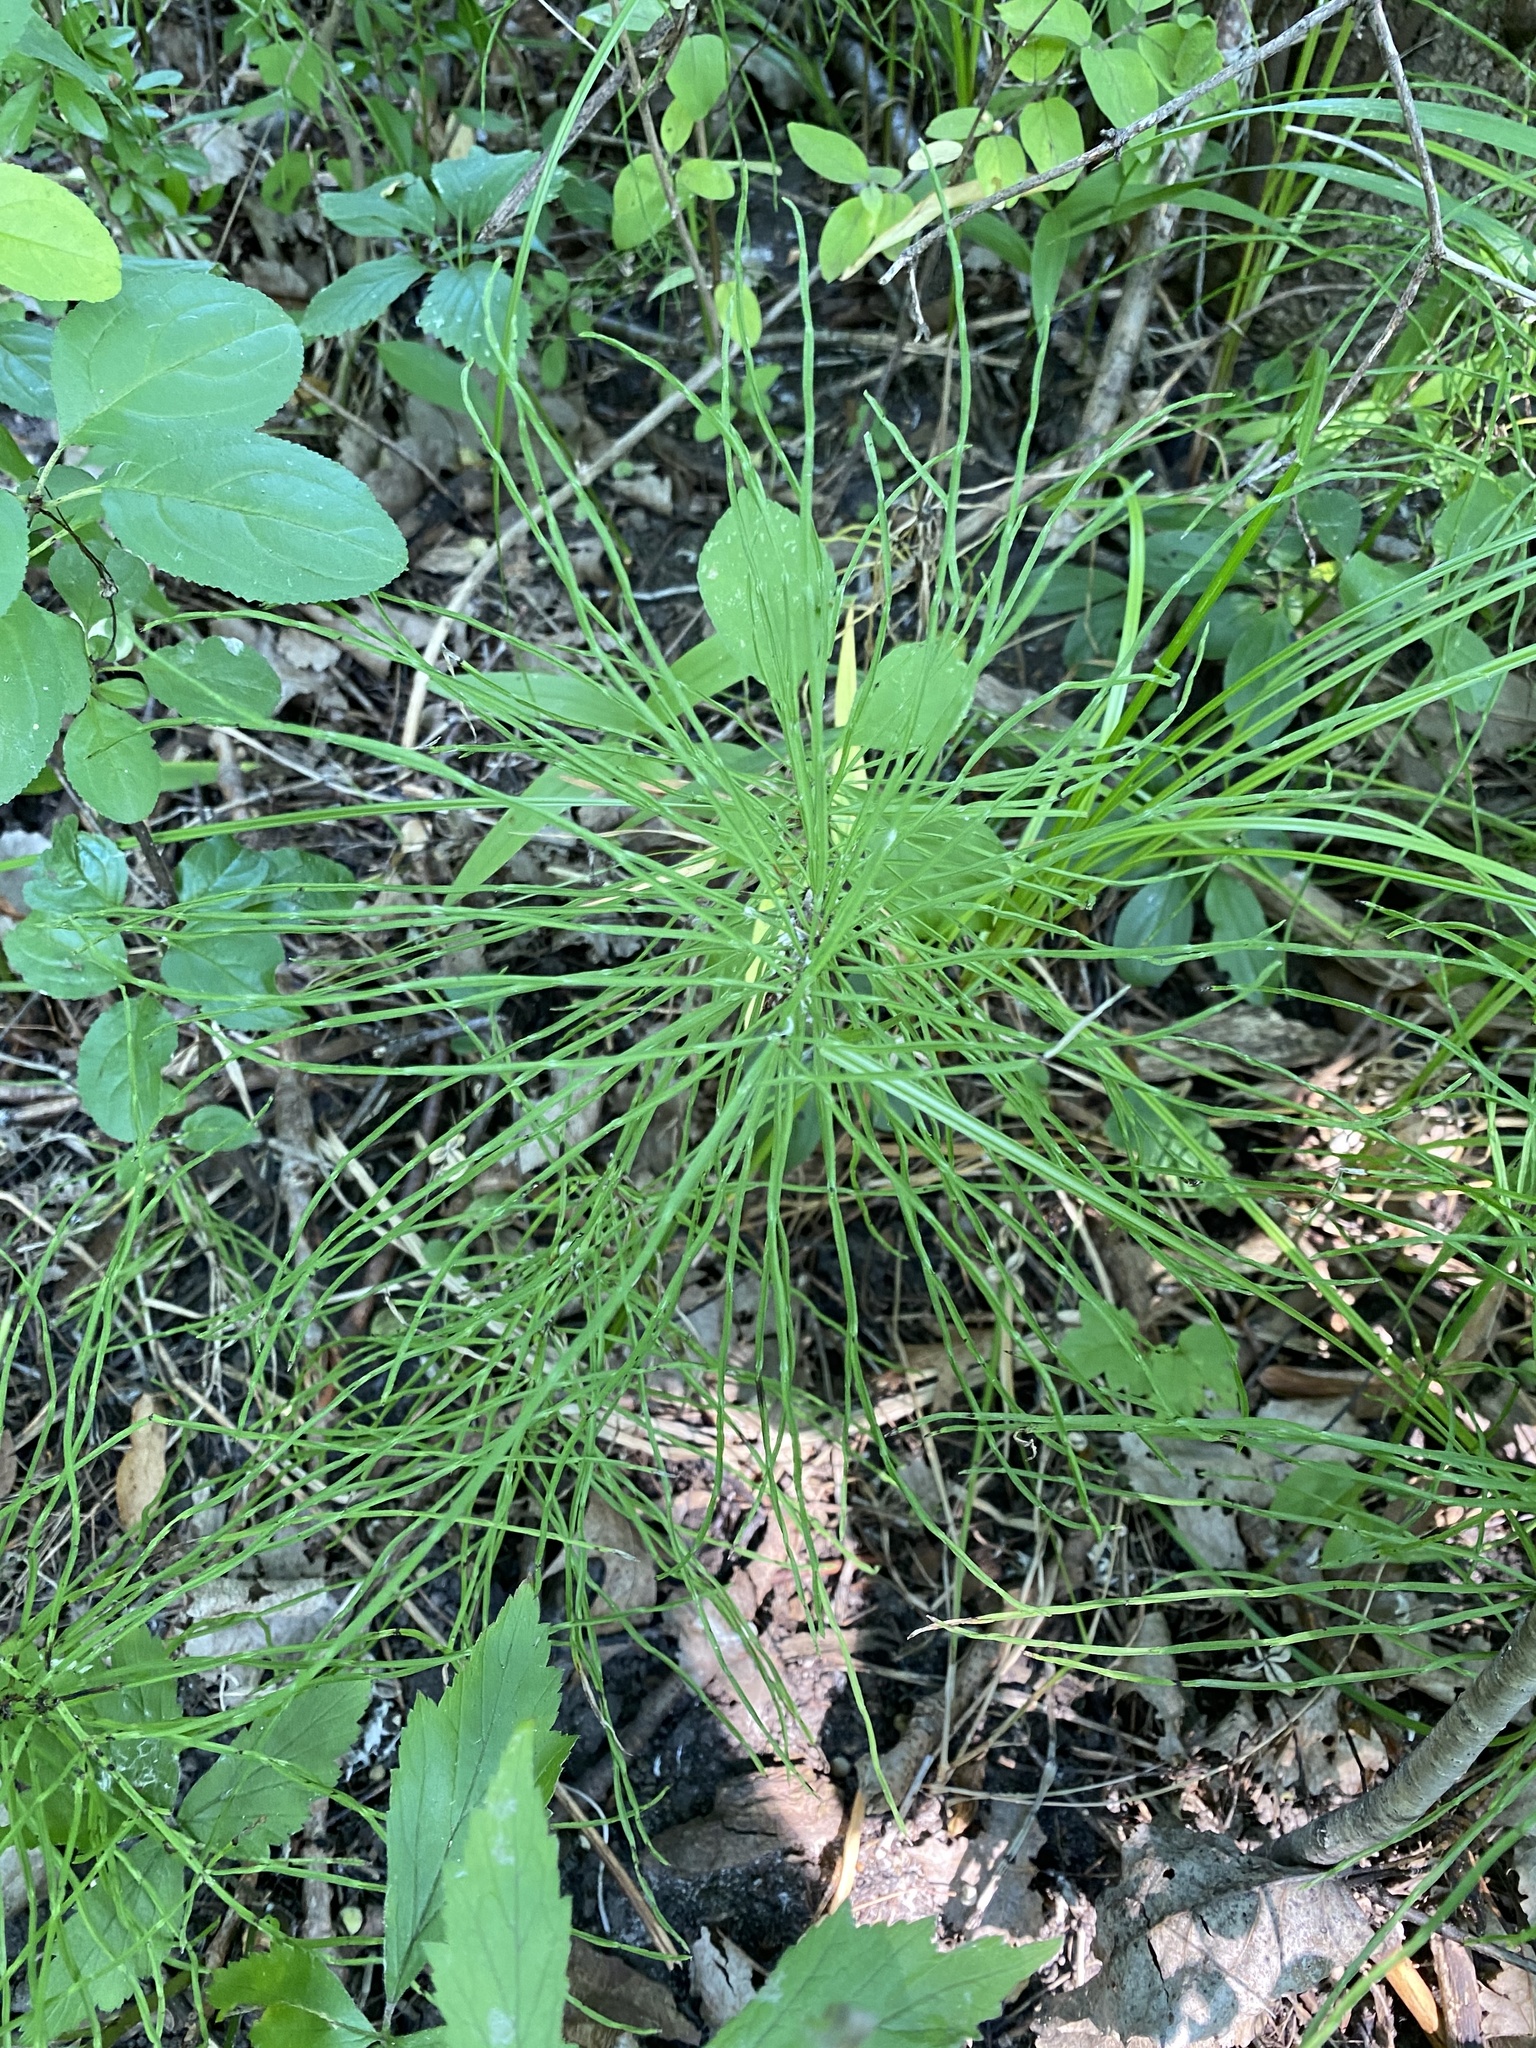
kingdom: Plantae
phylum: Tracheophyta
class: Polypodiopsida
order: Equisetales
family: Equisetaceae
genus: Equisetum
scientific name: Equisetum arvense
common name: Field horsetail
